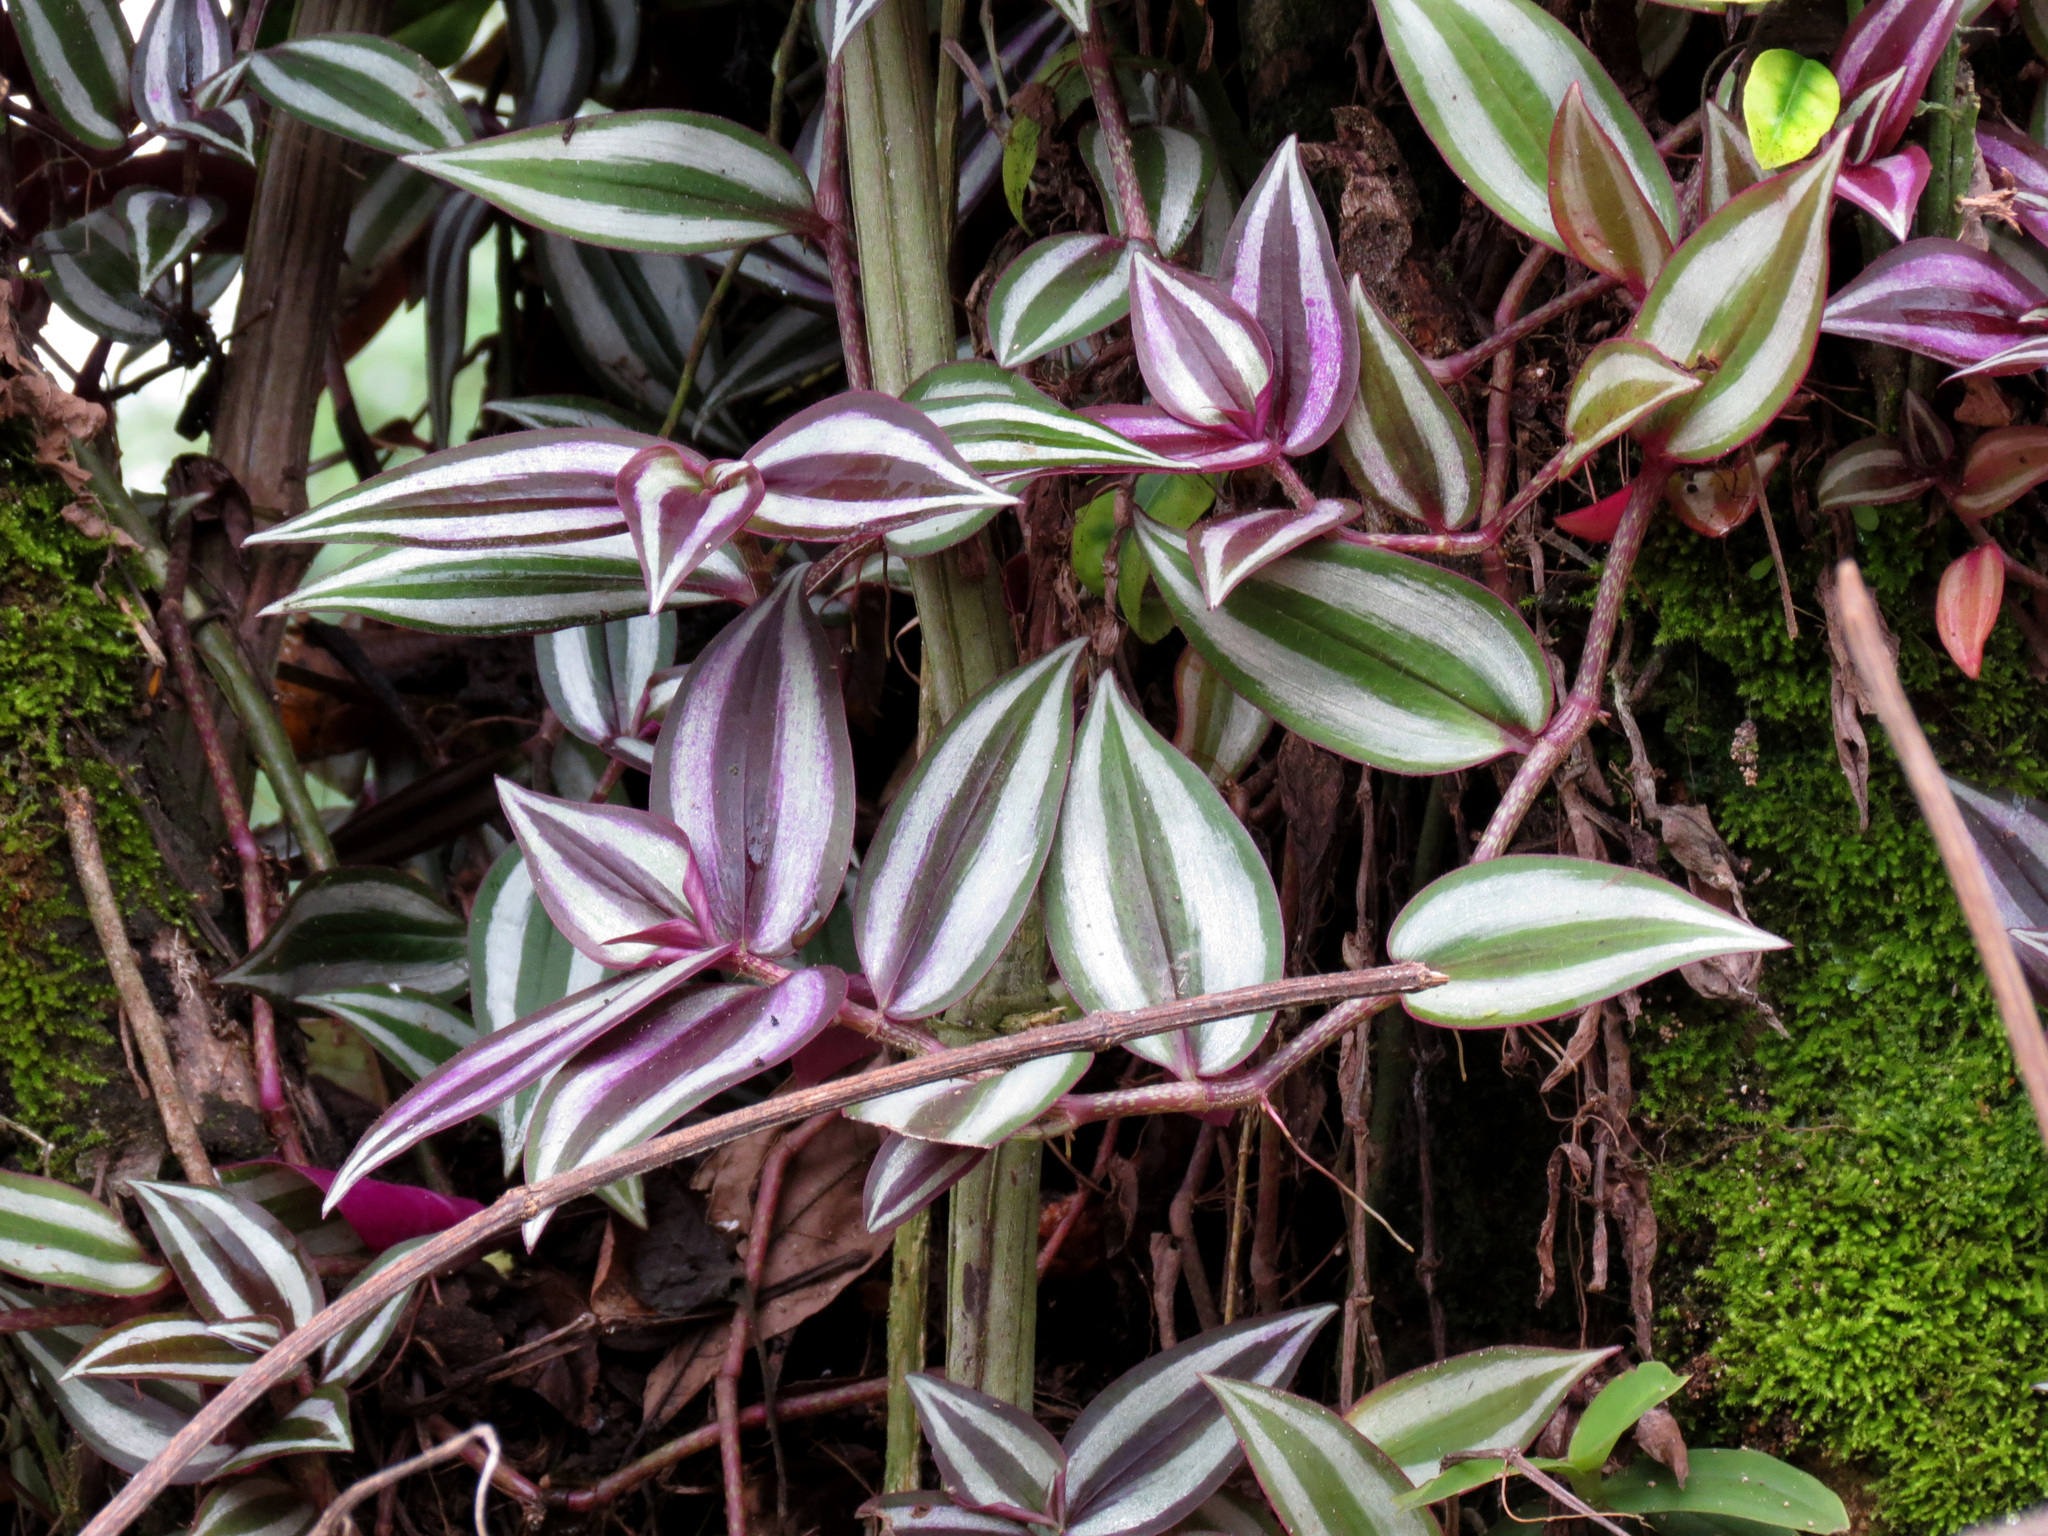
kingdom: Plantae
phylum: Tracheophyta
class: Liliopsida
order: Commelinales
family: Commelinaceae
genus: Tradescantia
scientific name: Tradescantia zebrina
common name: Inchplant
